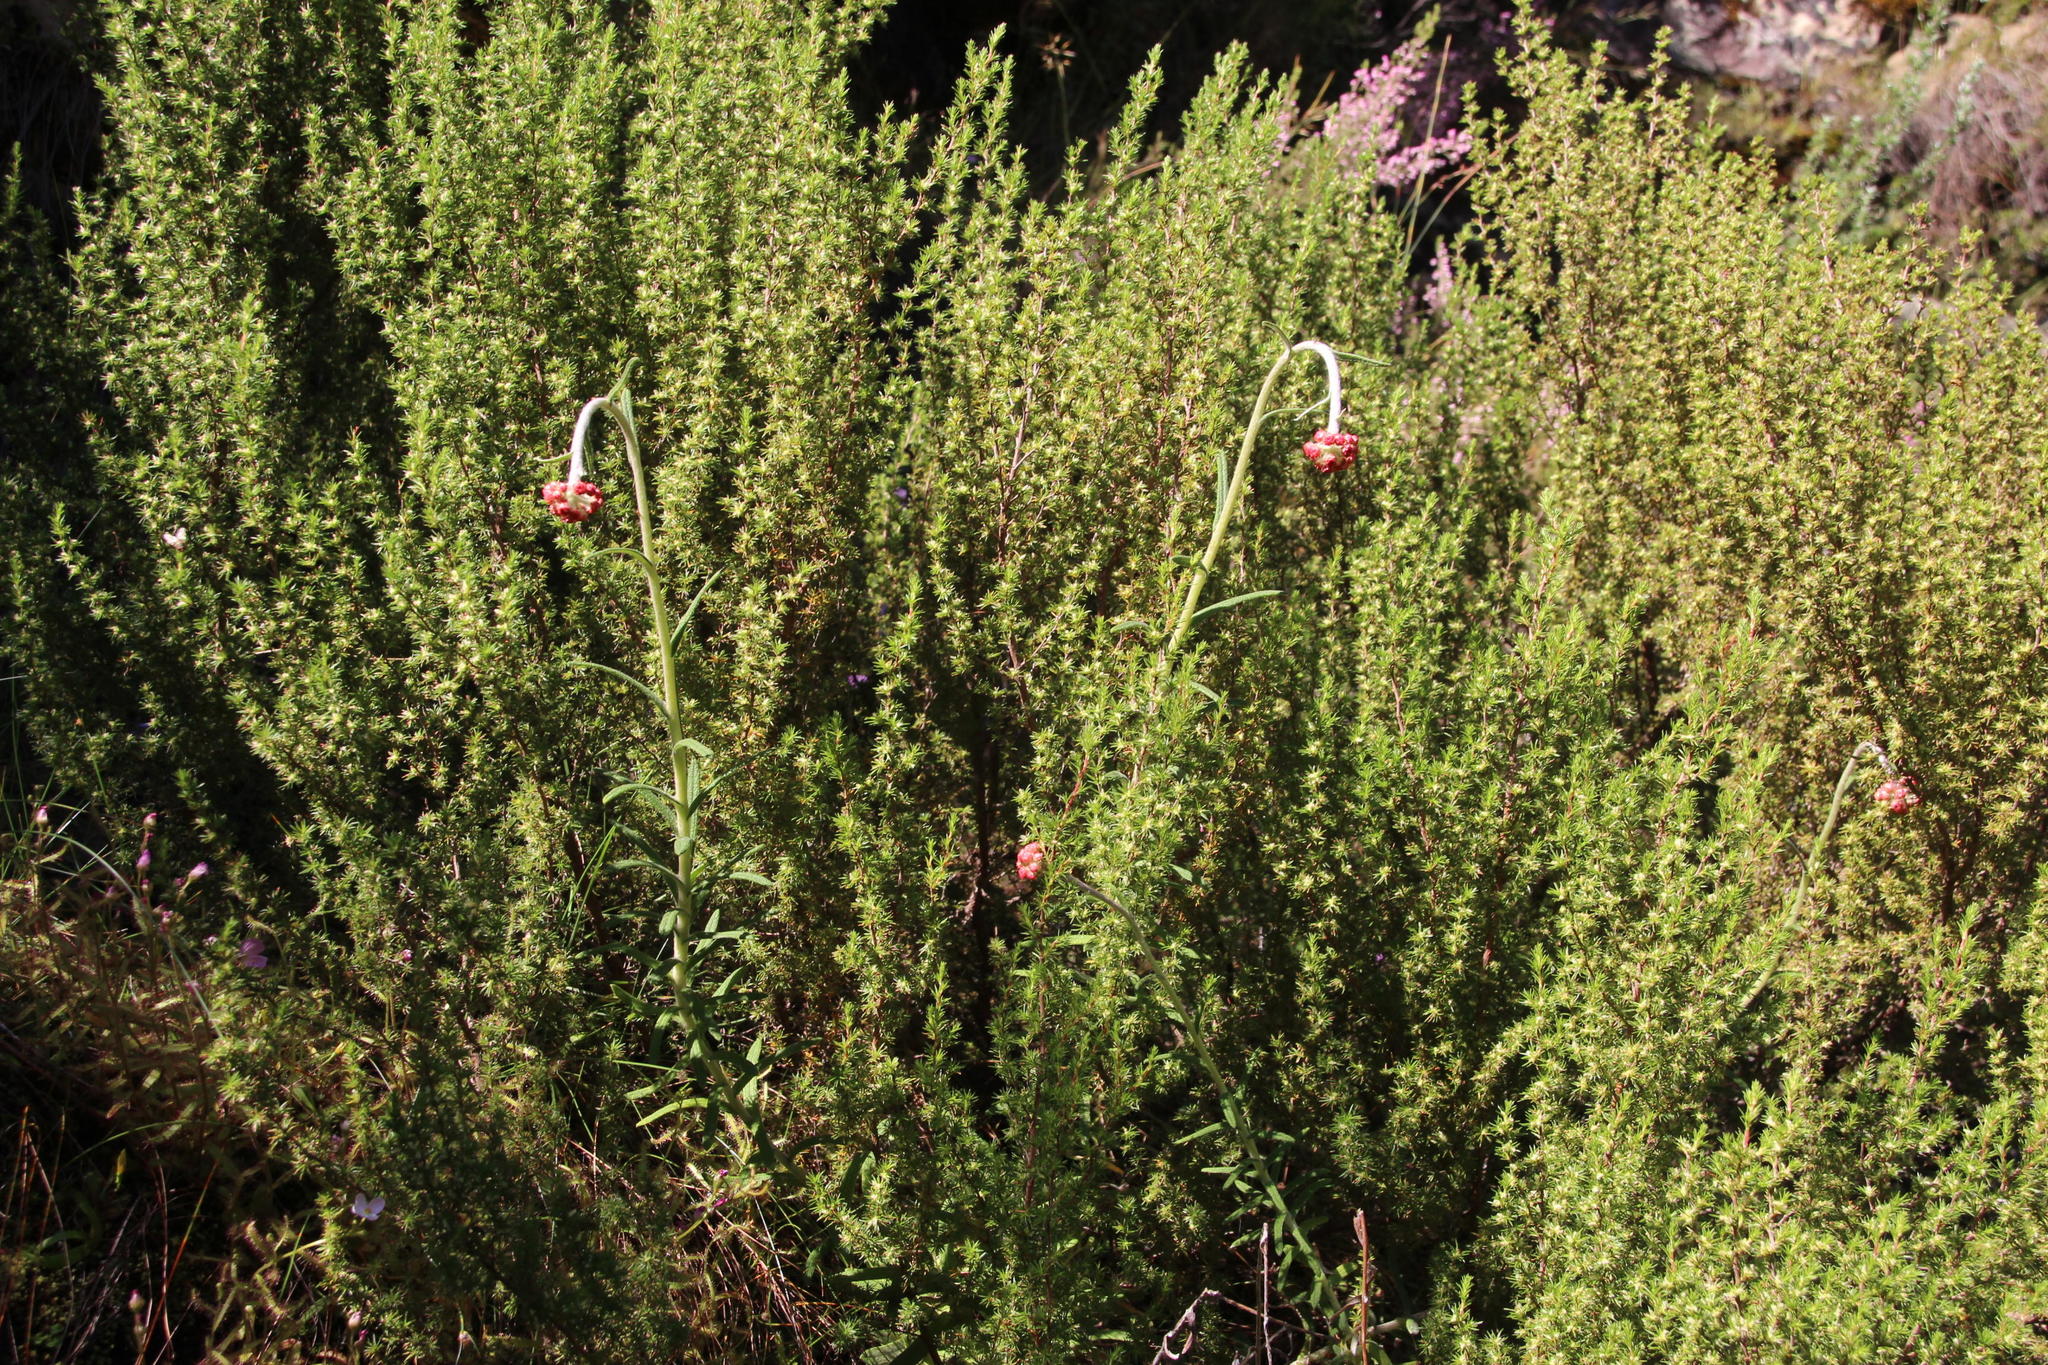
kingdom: Plantae
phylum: Tracheophyta
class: Magnoliopsida
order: Asterales
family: Asteraceae
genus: Helichrysum
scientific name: Helichrysum felinum
